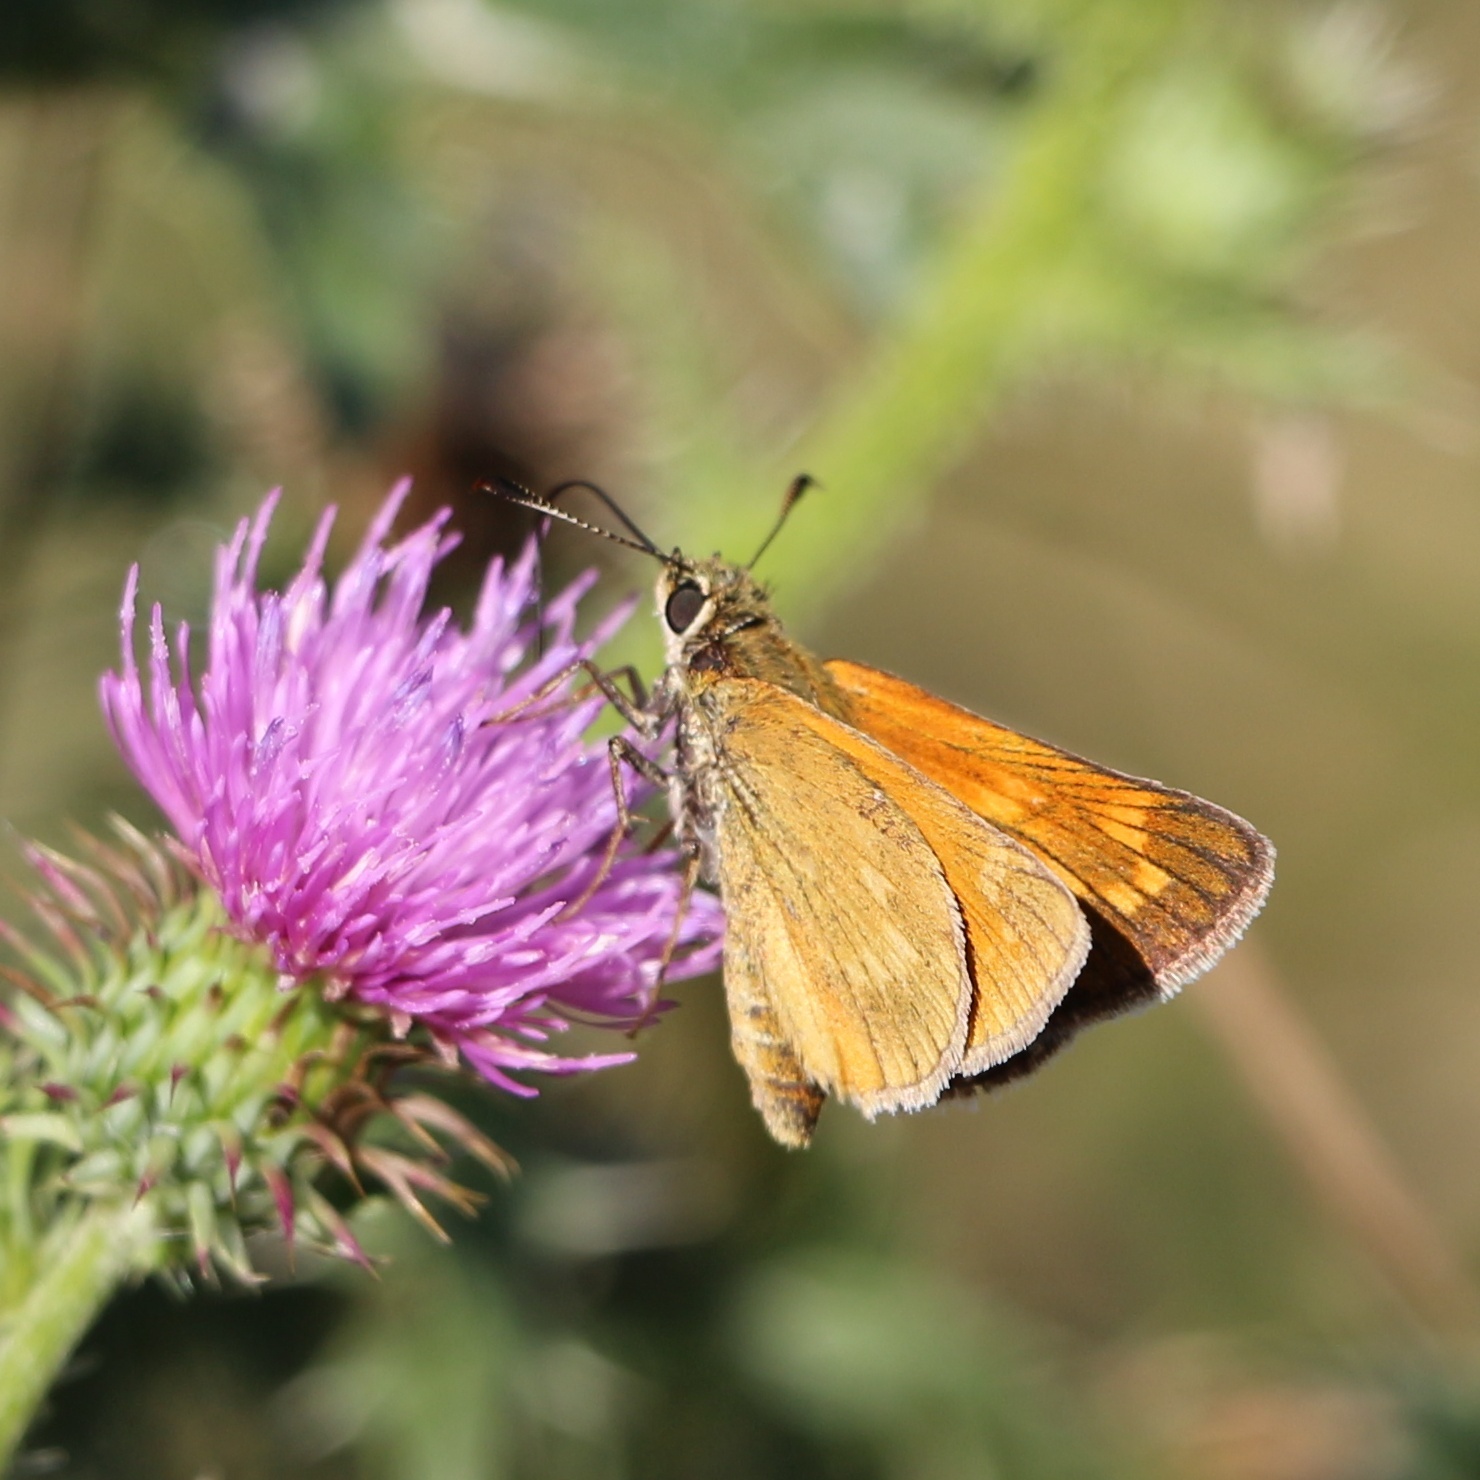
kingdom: Animalia
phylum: Arthropoda
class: Insecta
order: Lepidoptera
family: Hesperiidae
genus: Ochlodes
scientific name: Ochlodes venata
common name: Large skipper
